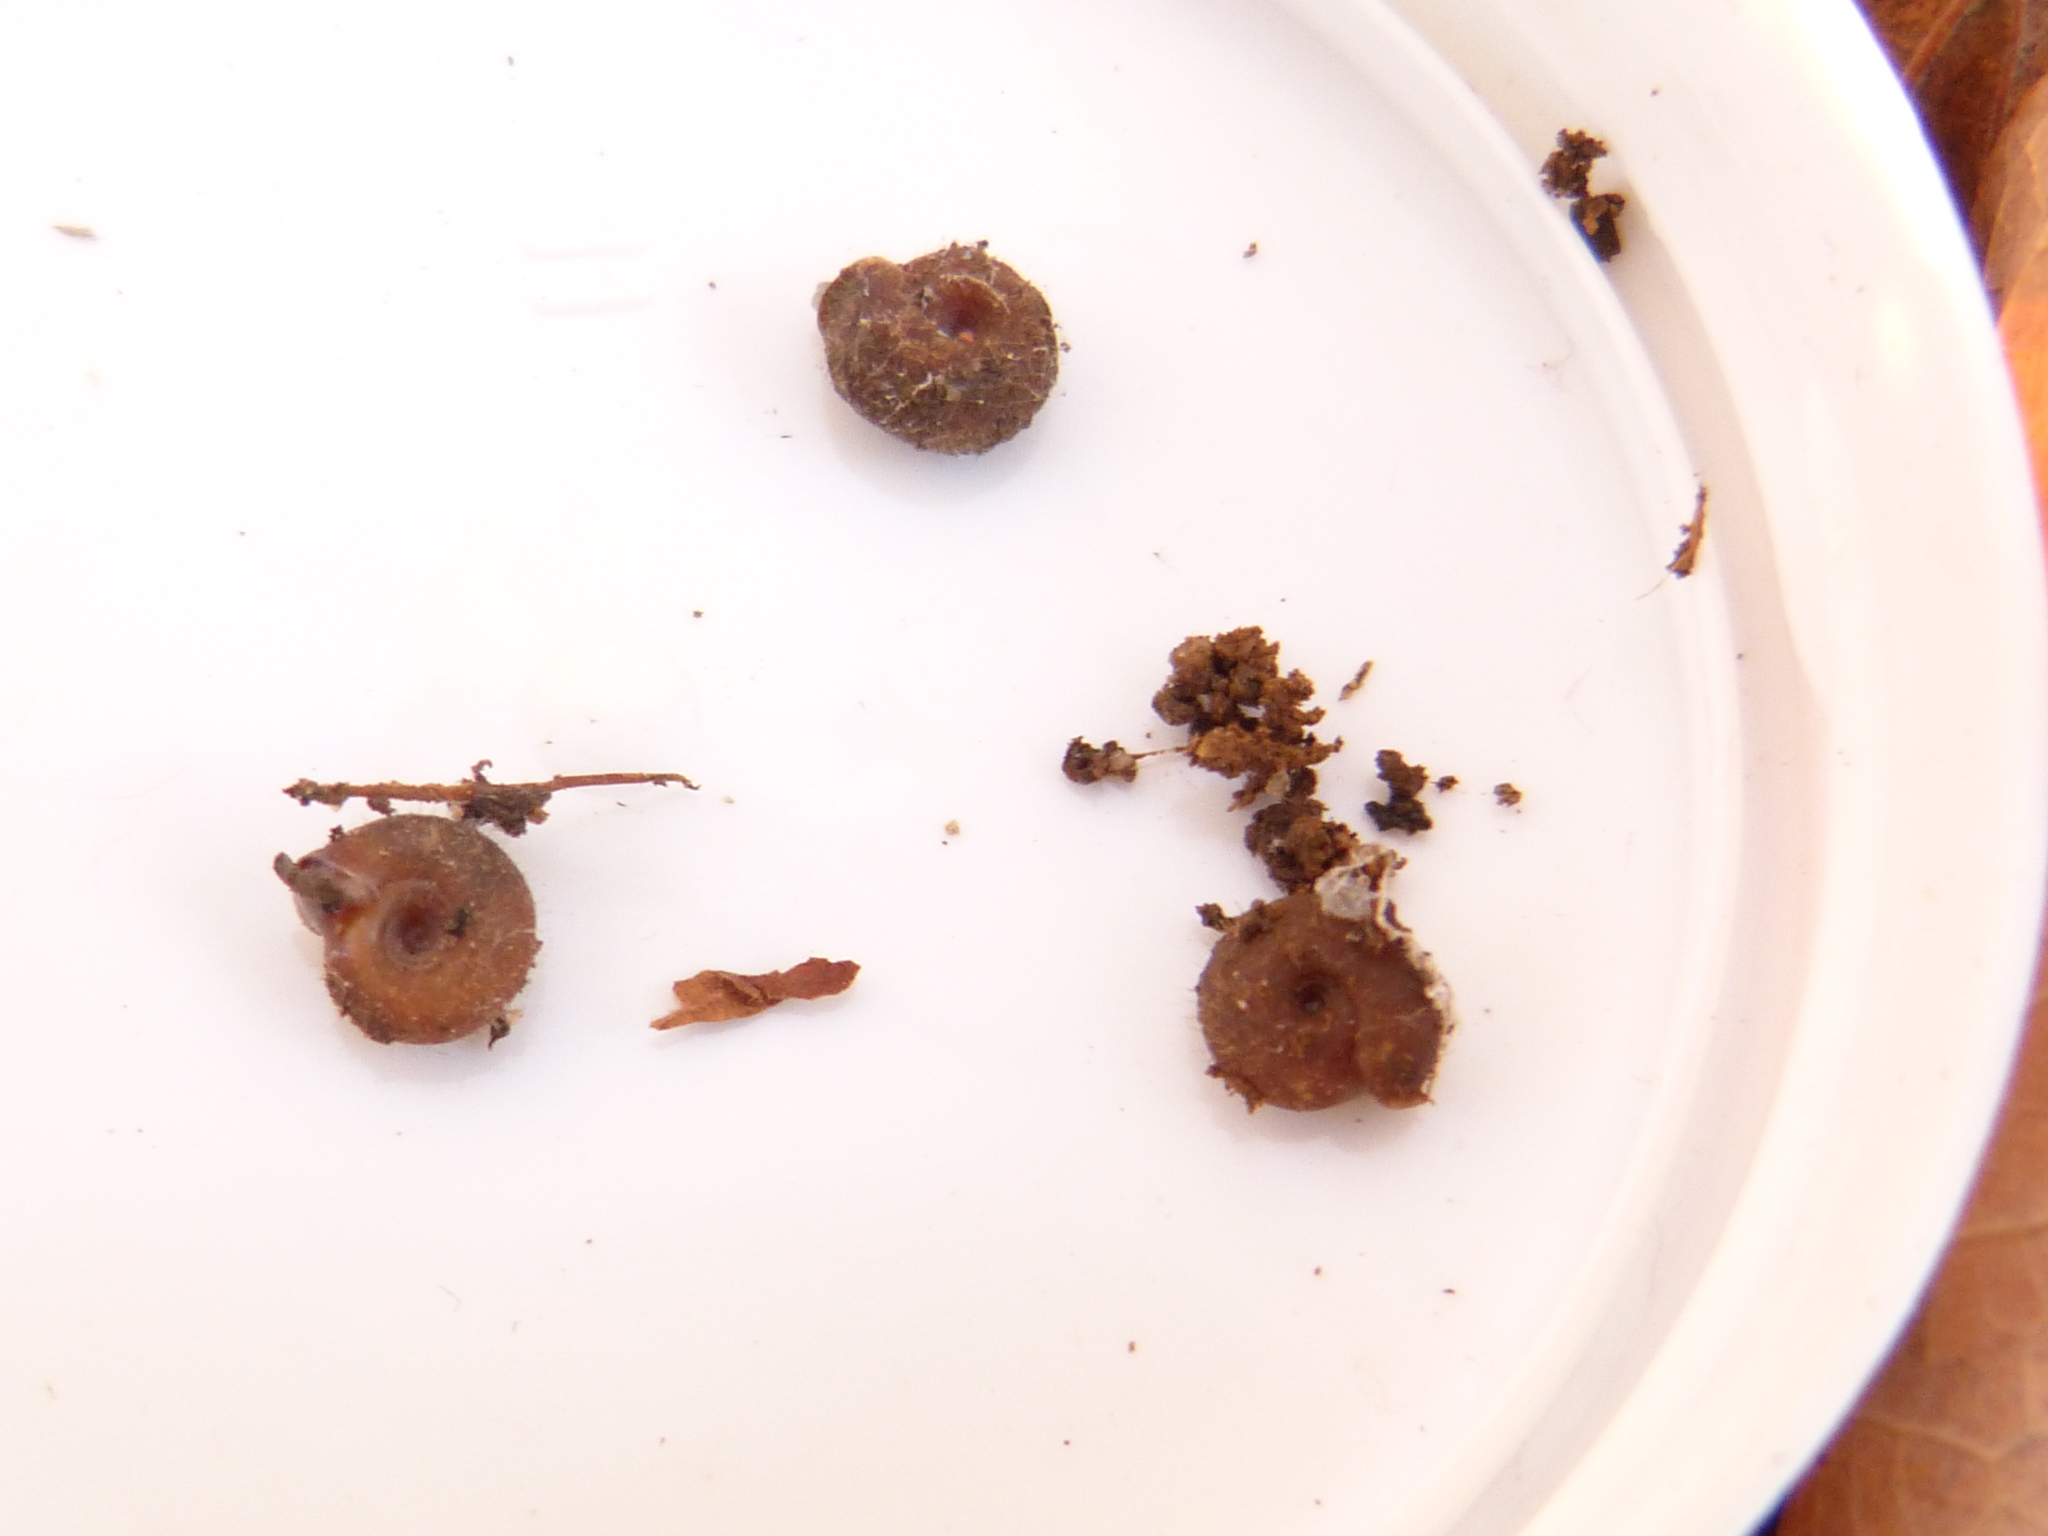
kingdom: Animalia
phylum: Mollusca
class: Gastropoda
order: Stylommatophora
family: Helicodontidae
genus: Drepanostoma
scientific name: Drepanostoma nautiliforme
